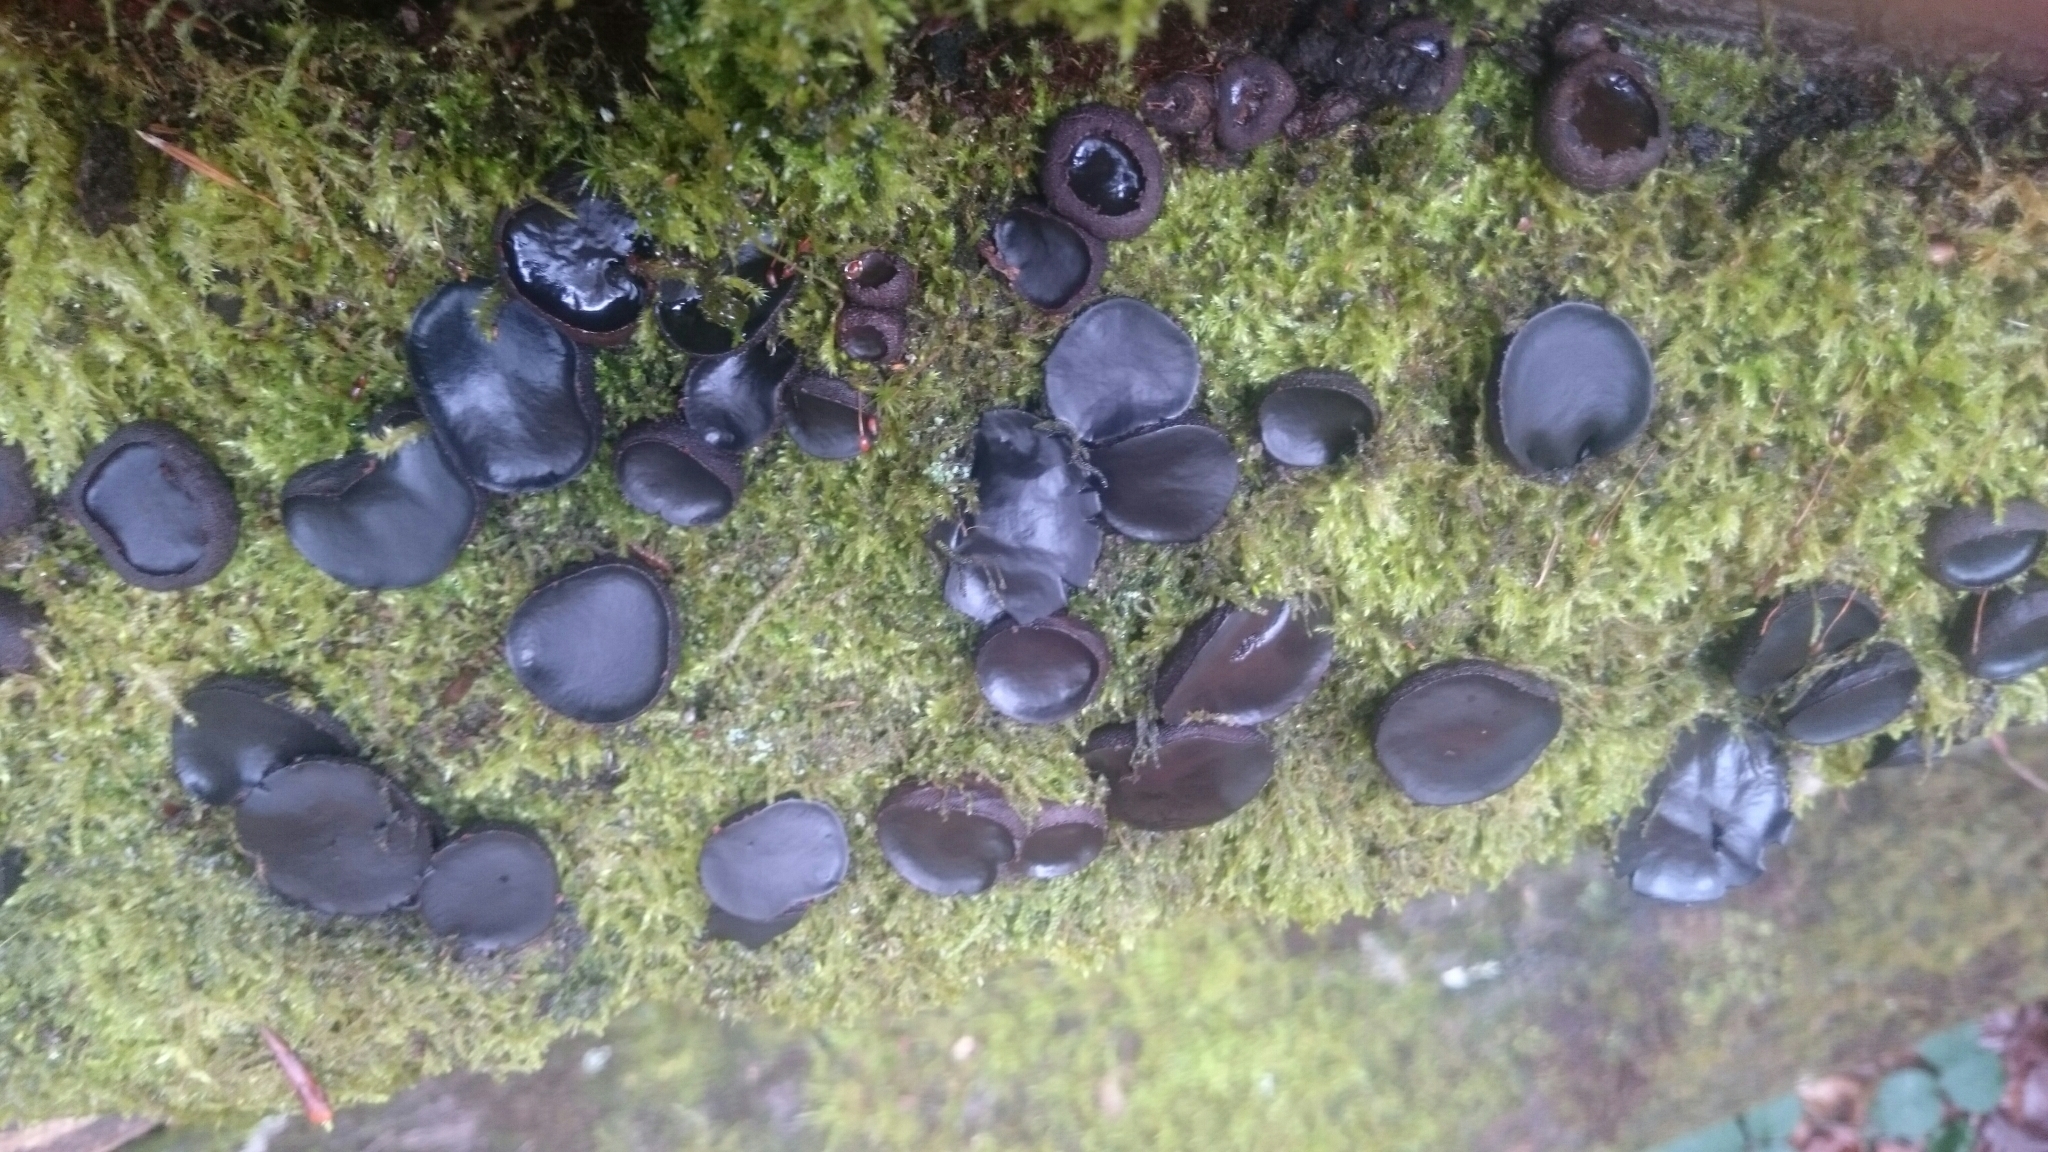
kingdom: Fungi
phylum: Ascomycota
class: Leotiomycetes
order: Phacidiales
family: Phacidiaceae
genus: Bulgaria
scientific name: Bulgaria inquinans
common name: Black bulgar
